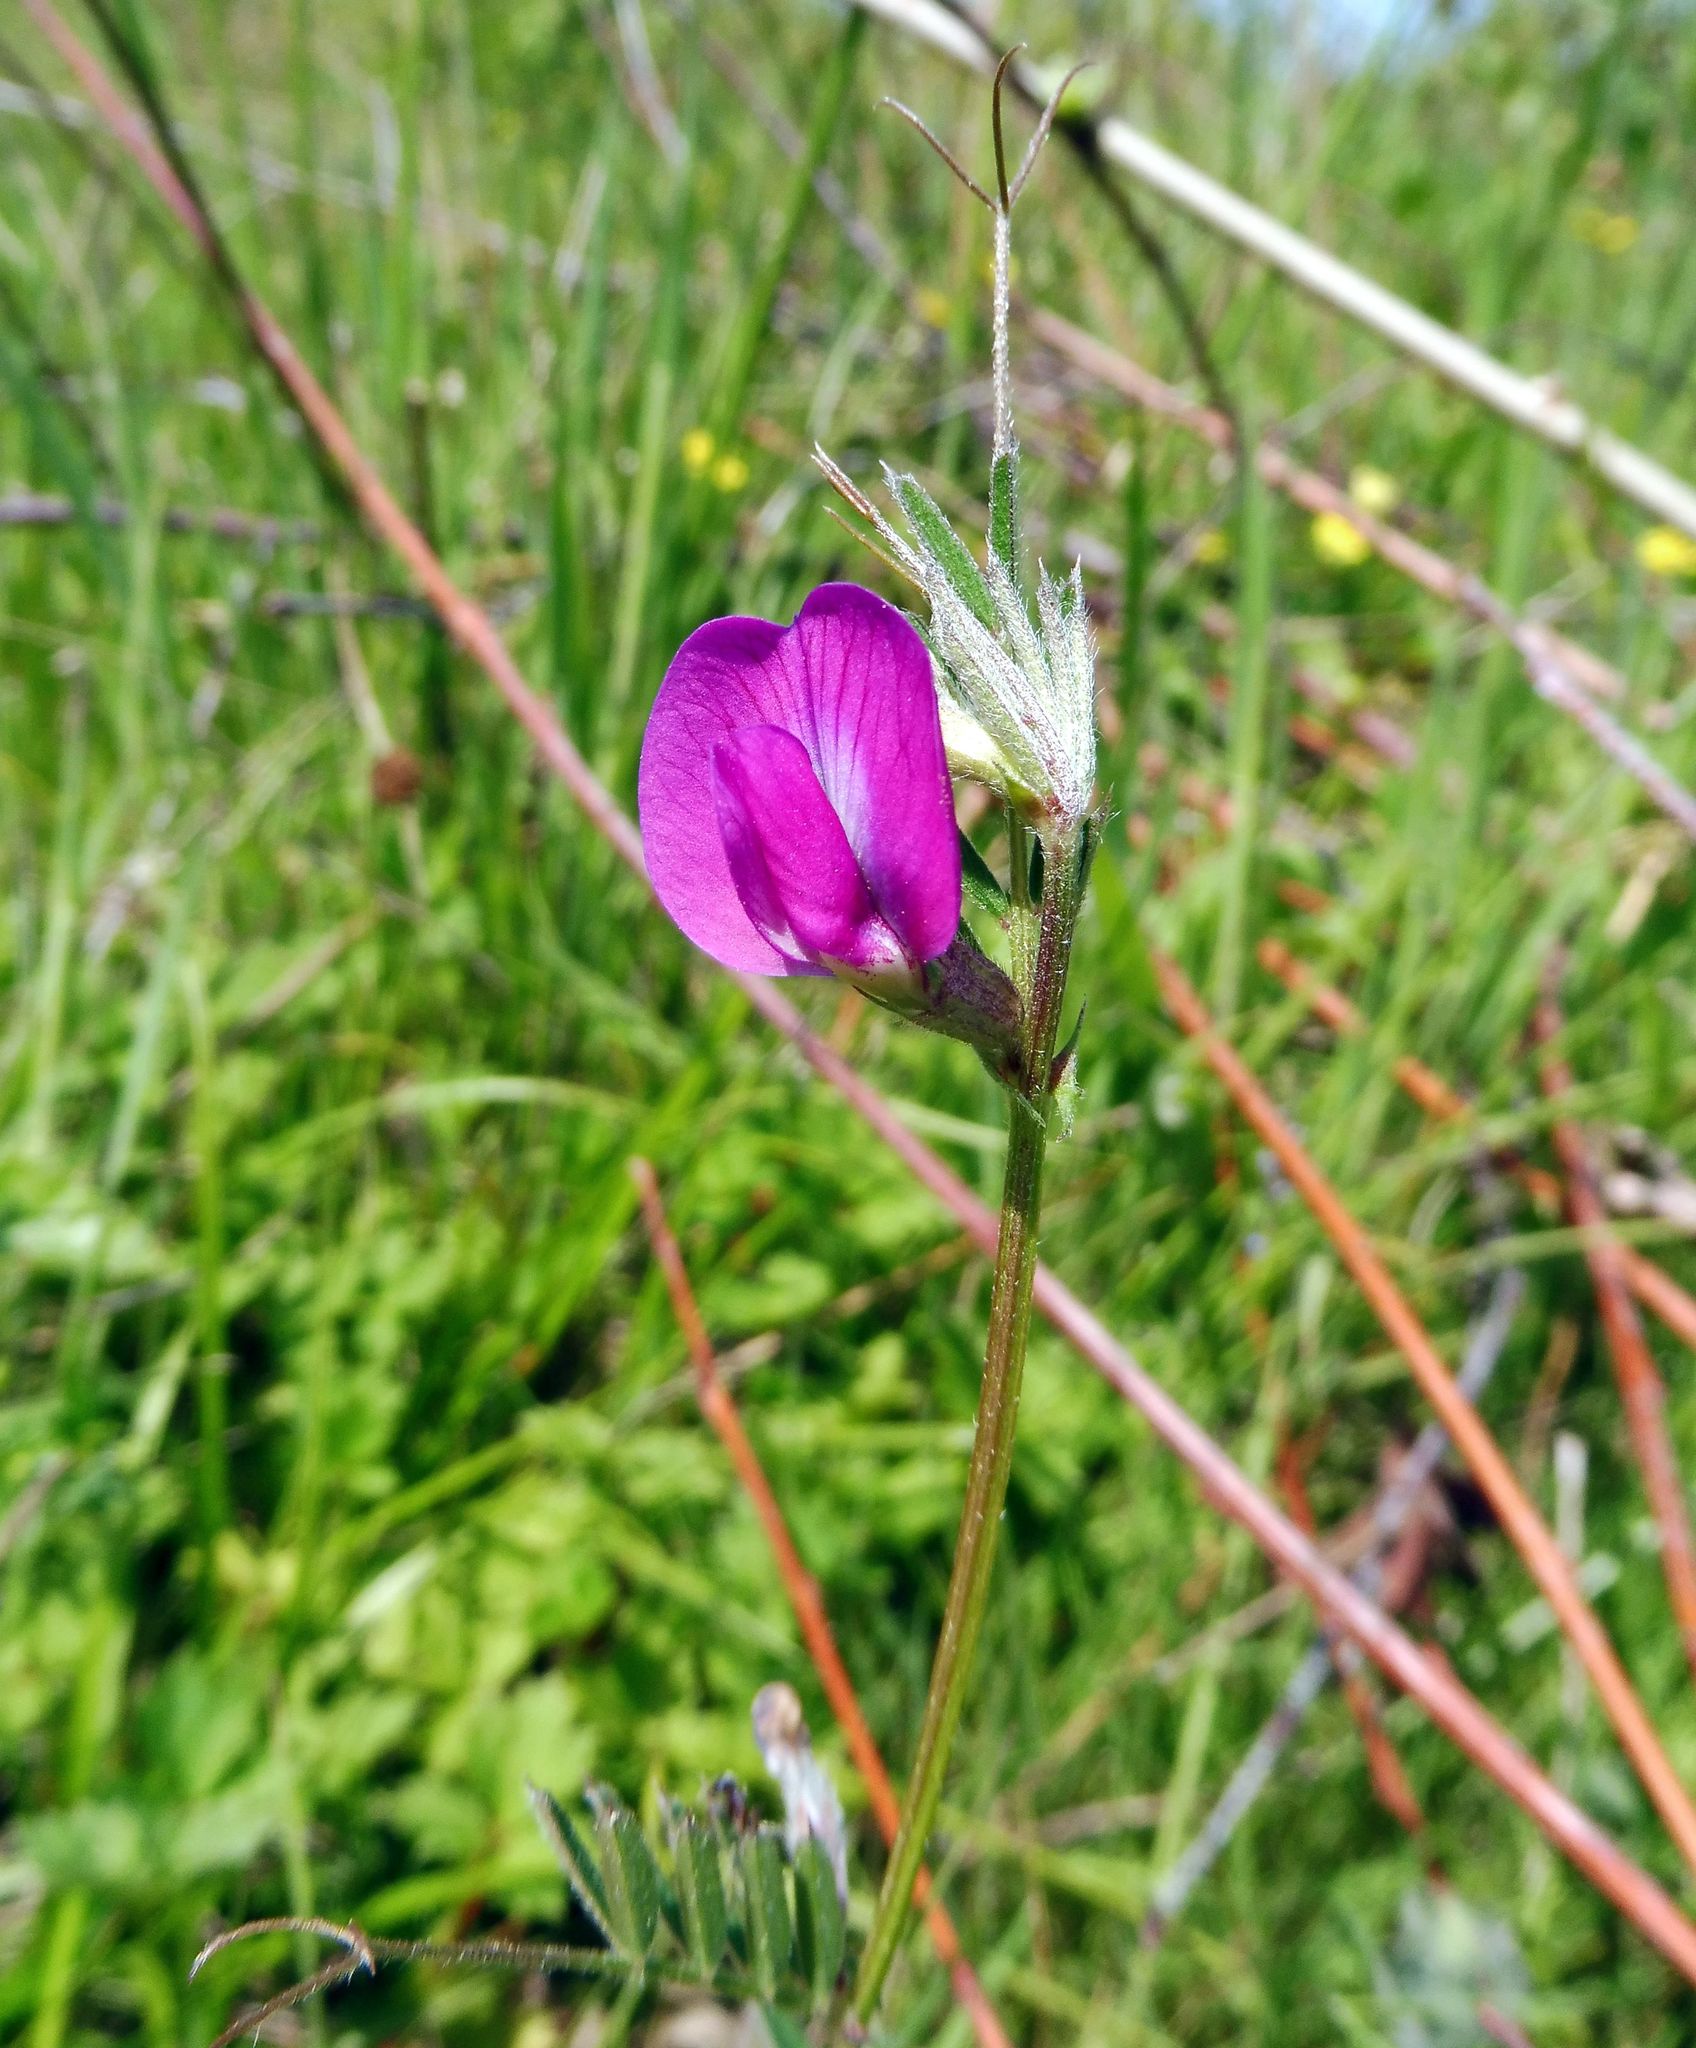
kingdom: Plantae
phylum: Tracheophyta
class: Magnoliopsida
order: Fabales
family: Fabaceae
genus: Vicia
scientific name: Vicia sativa
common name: Garden vetch
